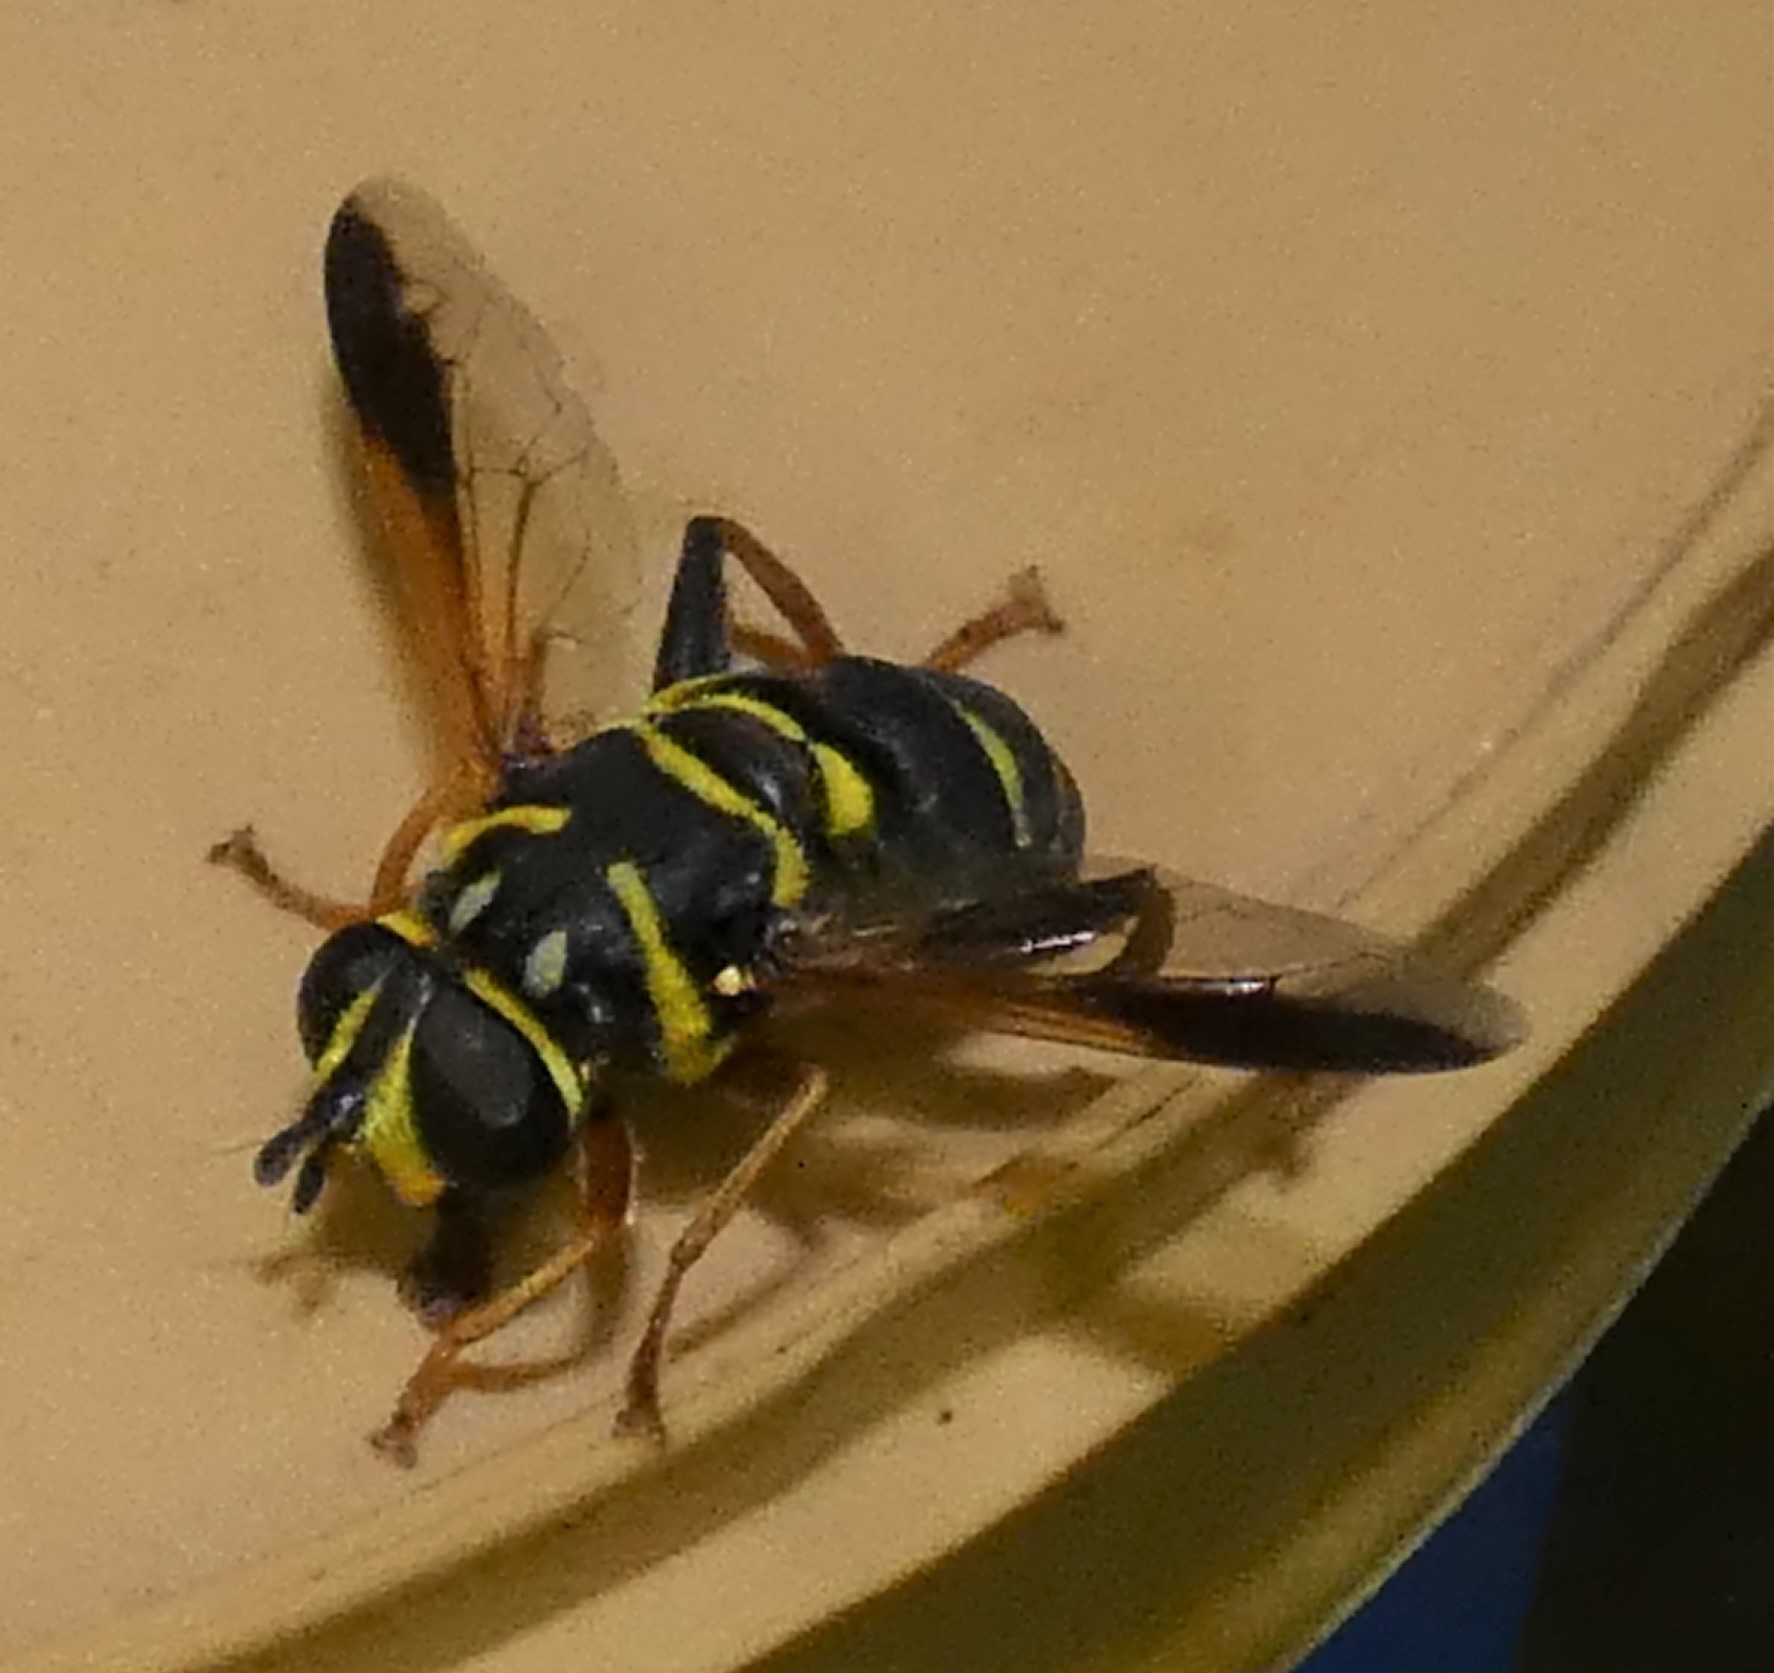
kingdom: Animalia
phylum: Arthropoda
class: Insecta
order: Diptera
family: Syrphidae
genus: Meromacrus
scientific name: Meromacrus acutus
